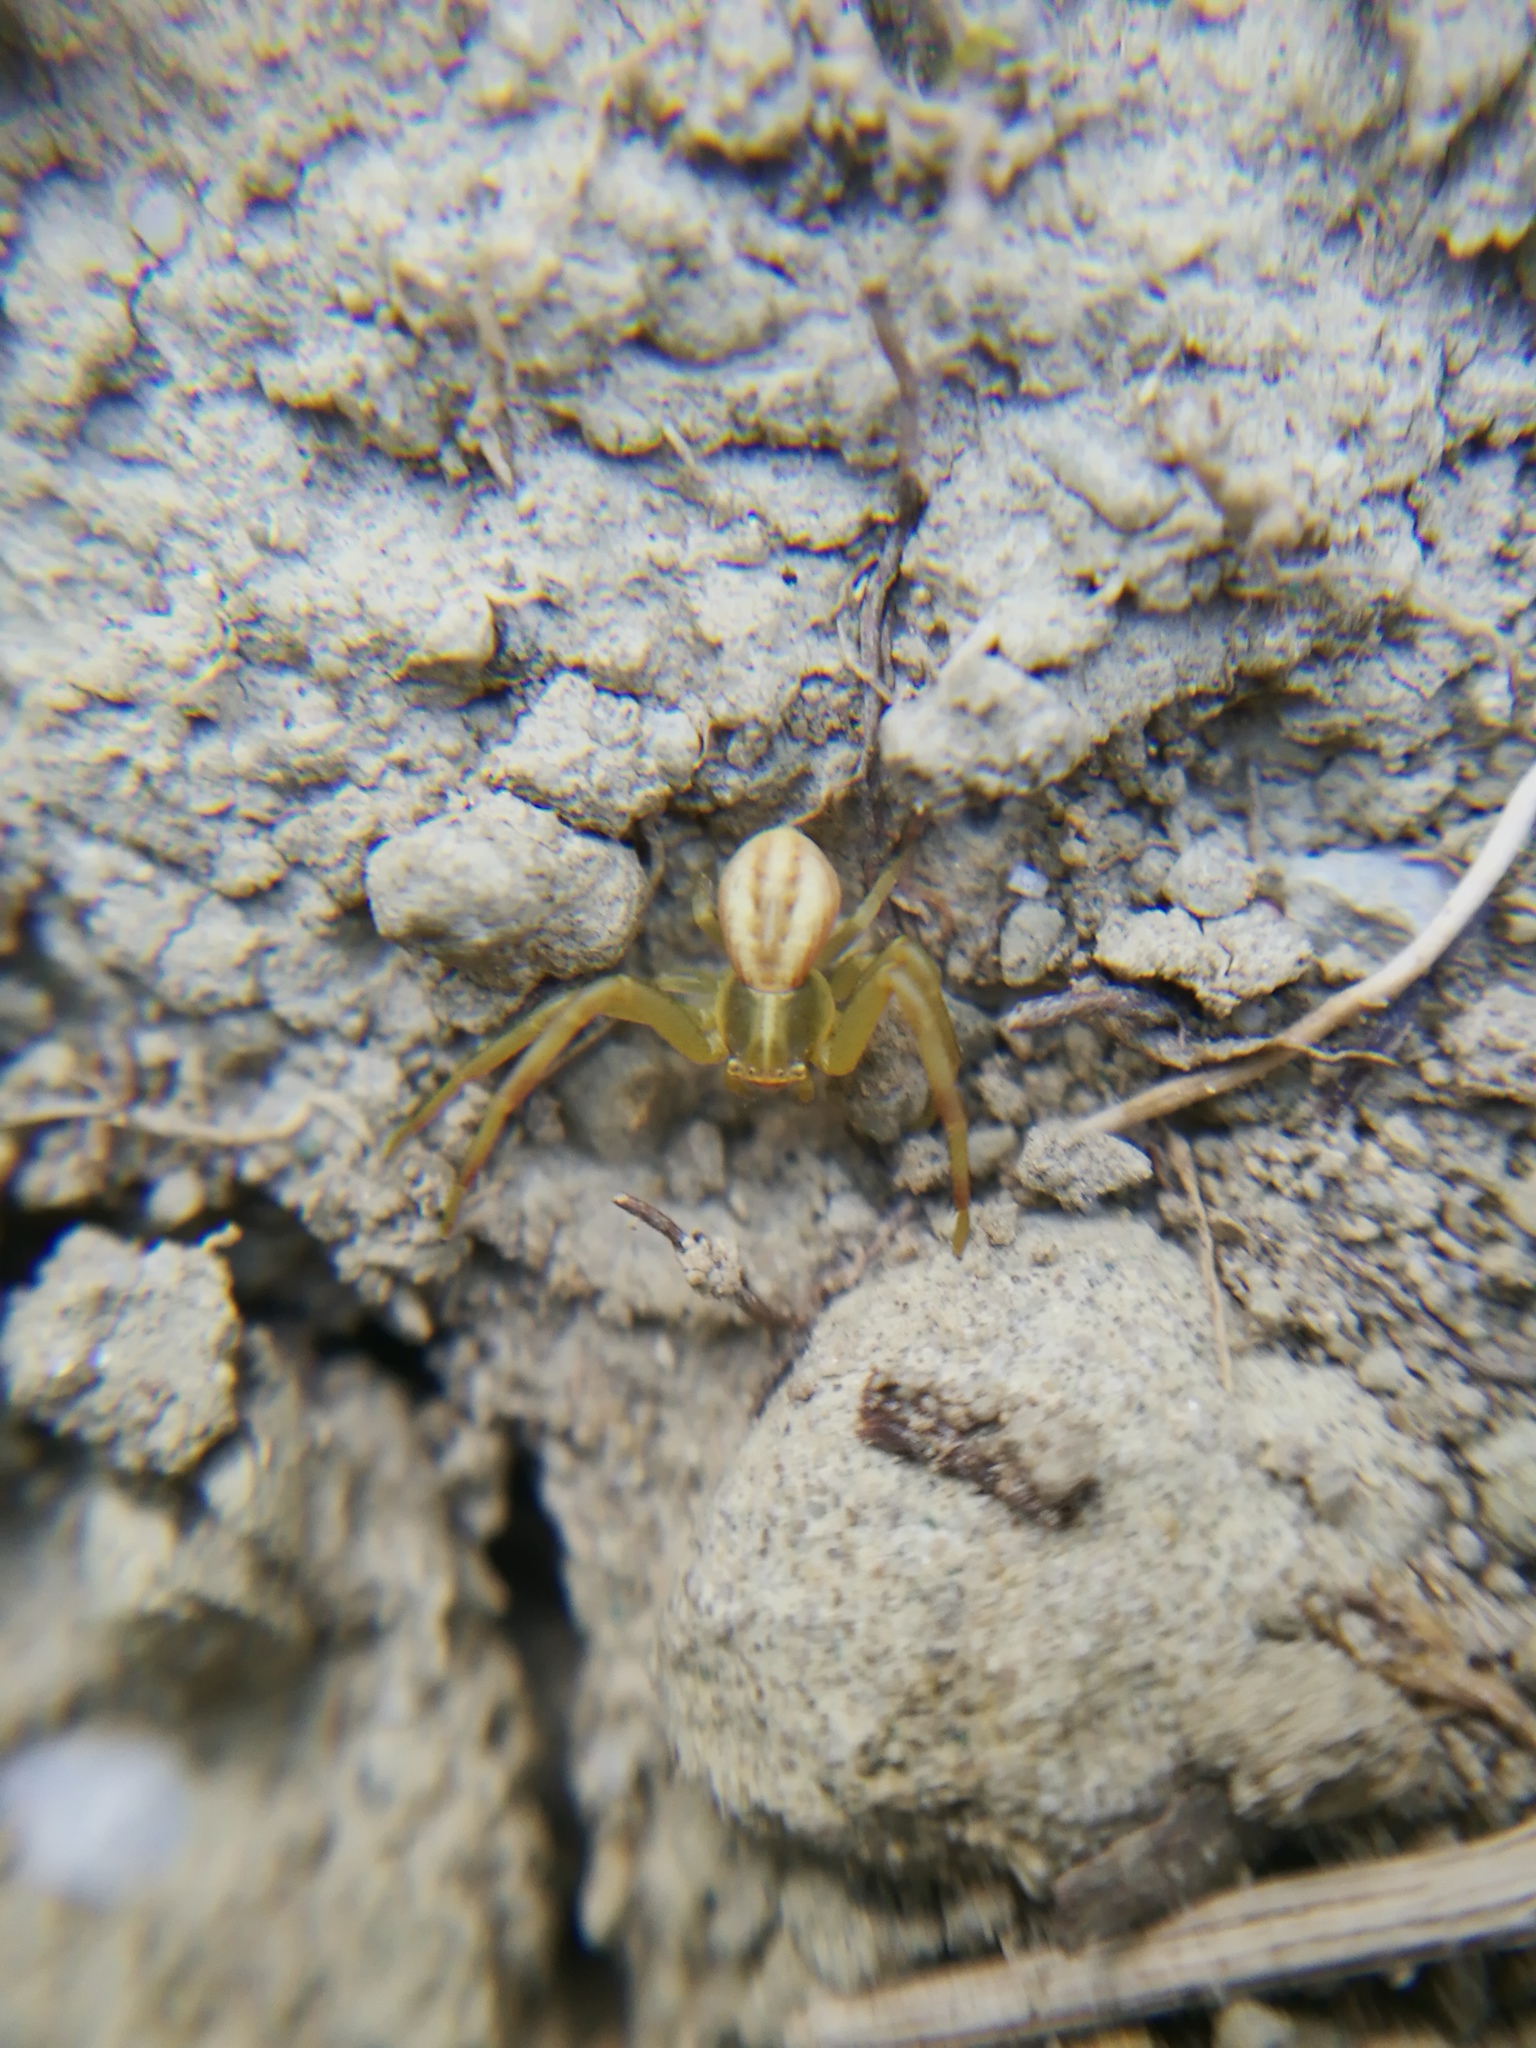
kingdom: Animalia
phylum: Arthropoda
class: Arachnida
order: Araneae
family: Thomisidae
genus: Runcinia
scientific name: Runcinia grammica
